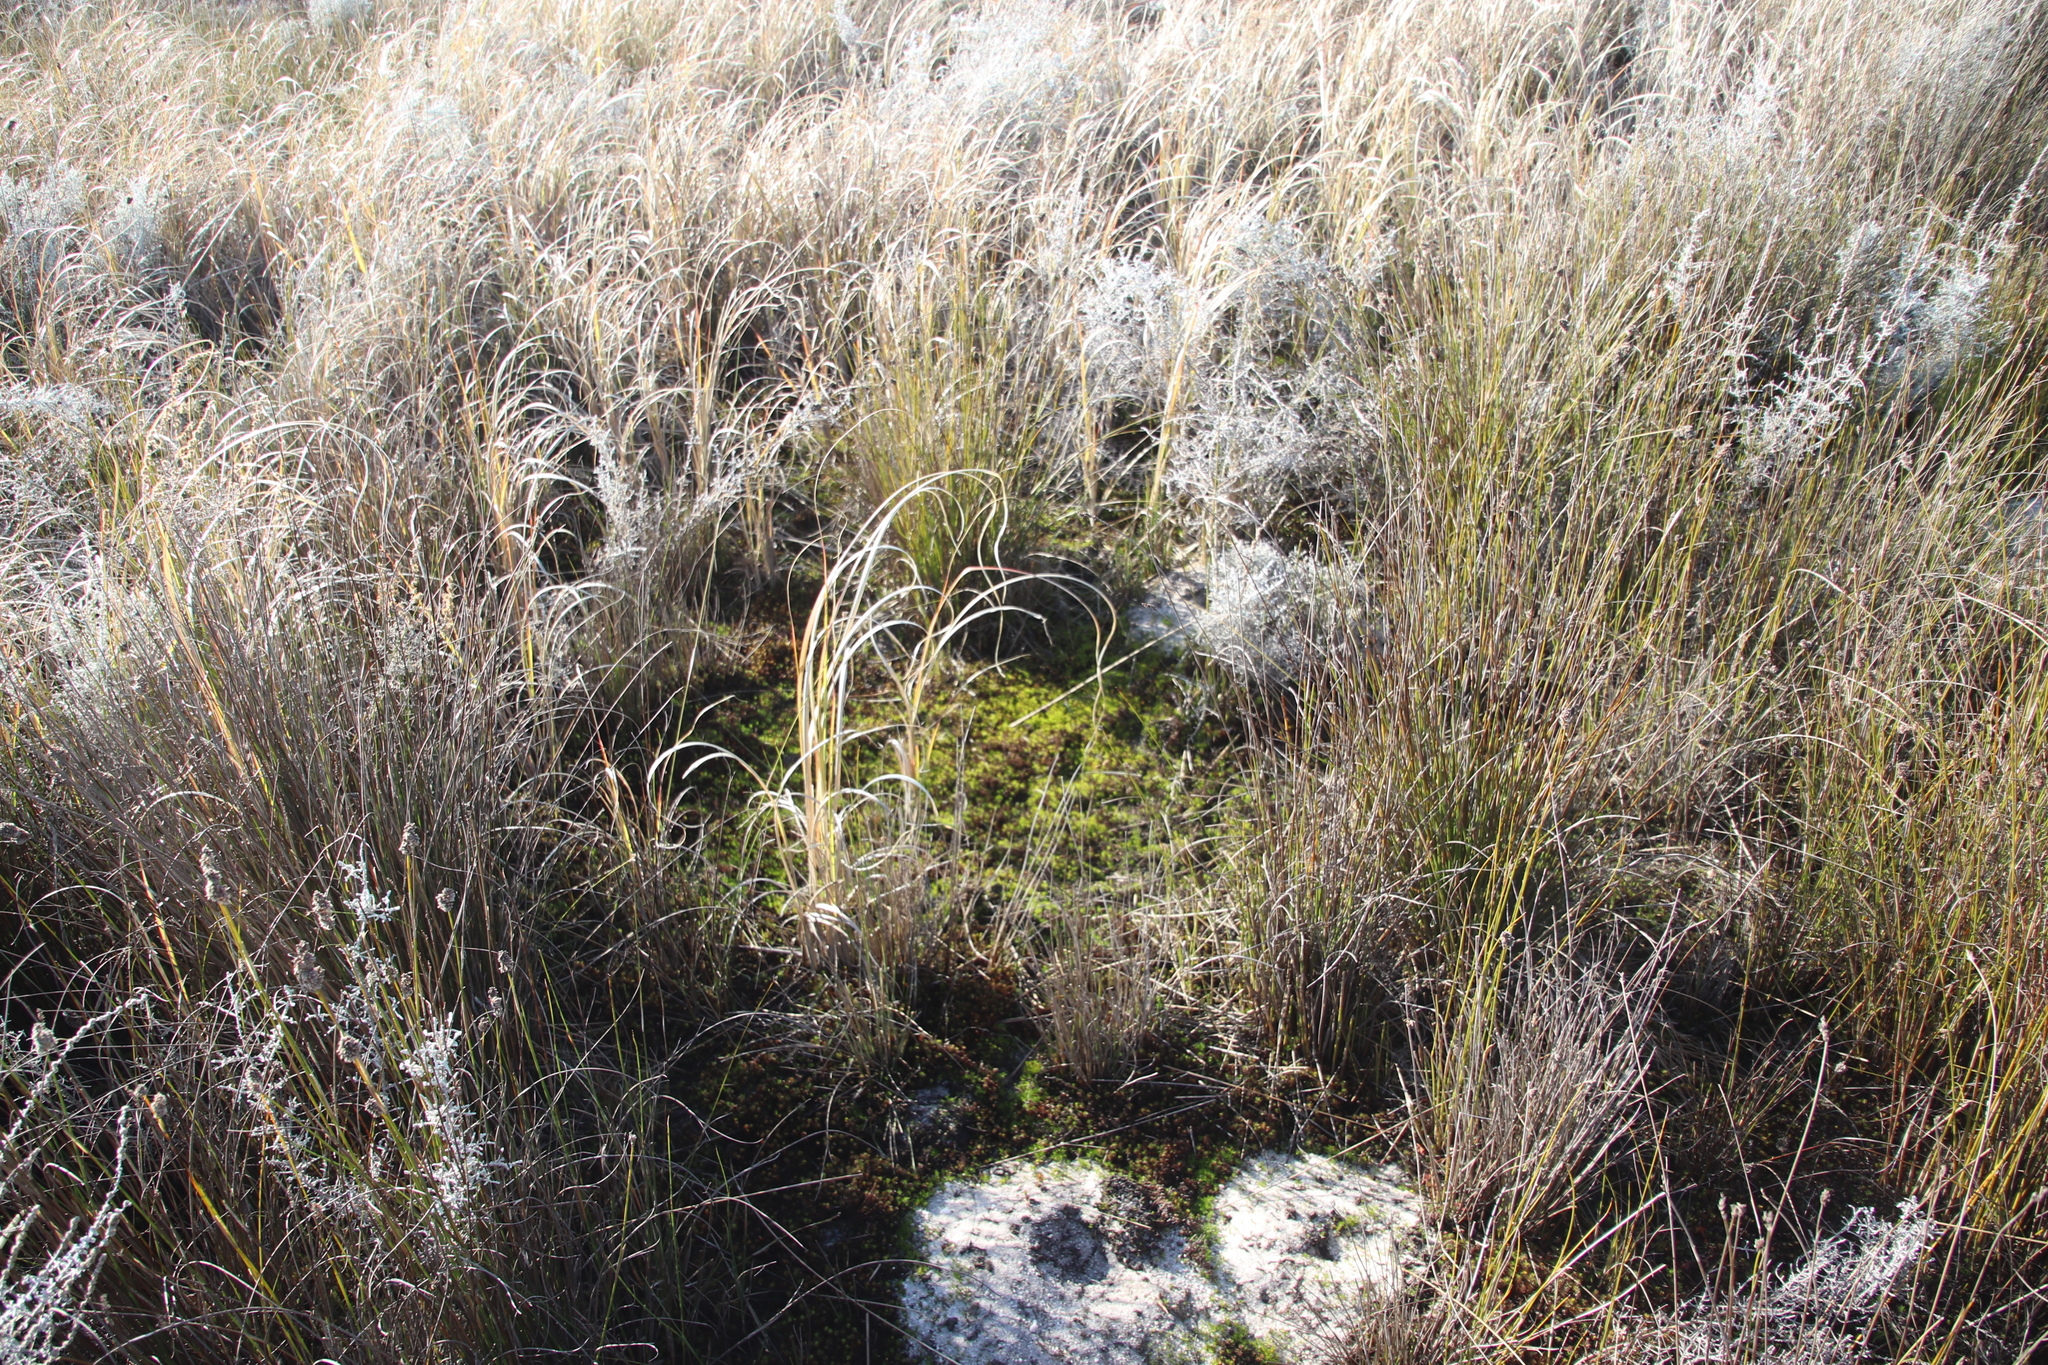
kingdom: Plantae
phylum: Bryophyta
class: Polytrichopsida
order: Polytrichales
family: Polytrichaceae
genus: Polytrichum
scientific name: Polytrichum juniperinum
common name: Juniper haircap moss
